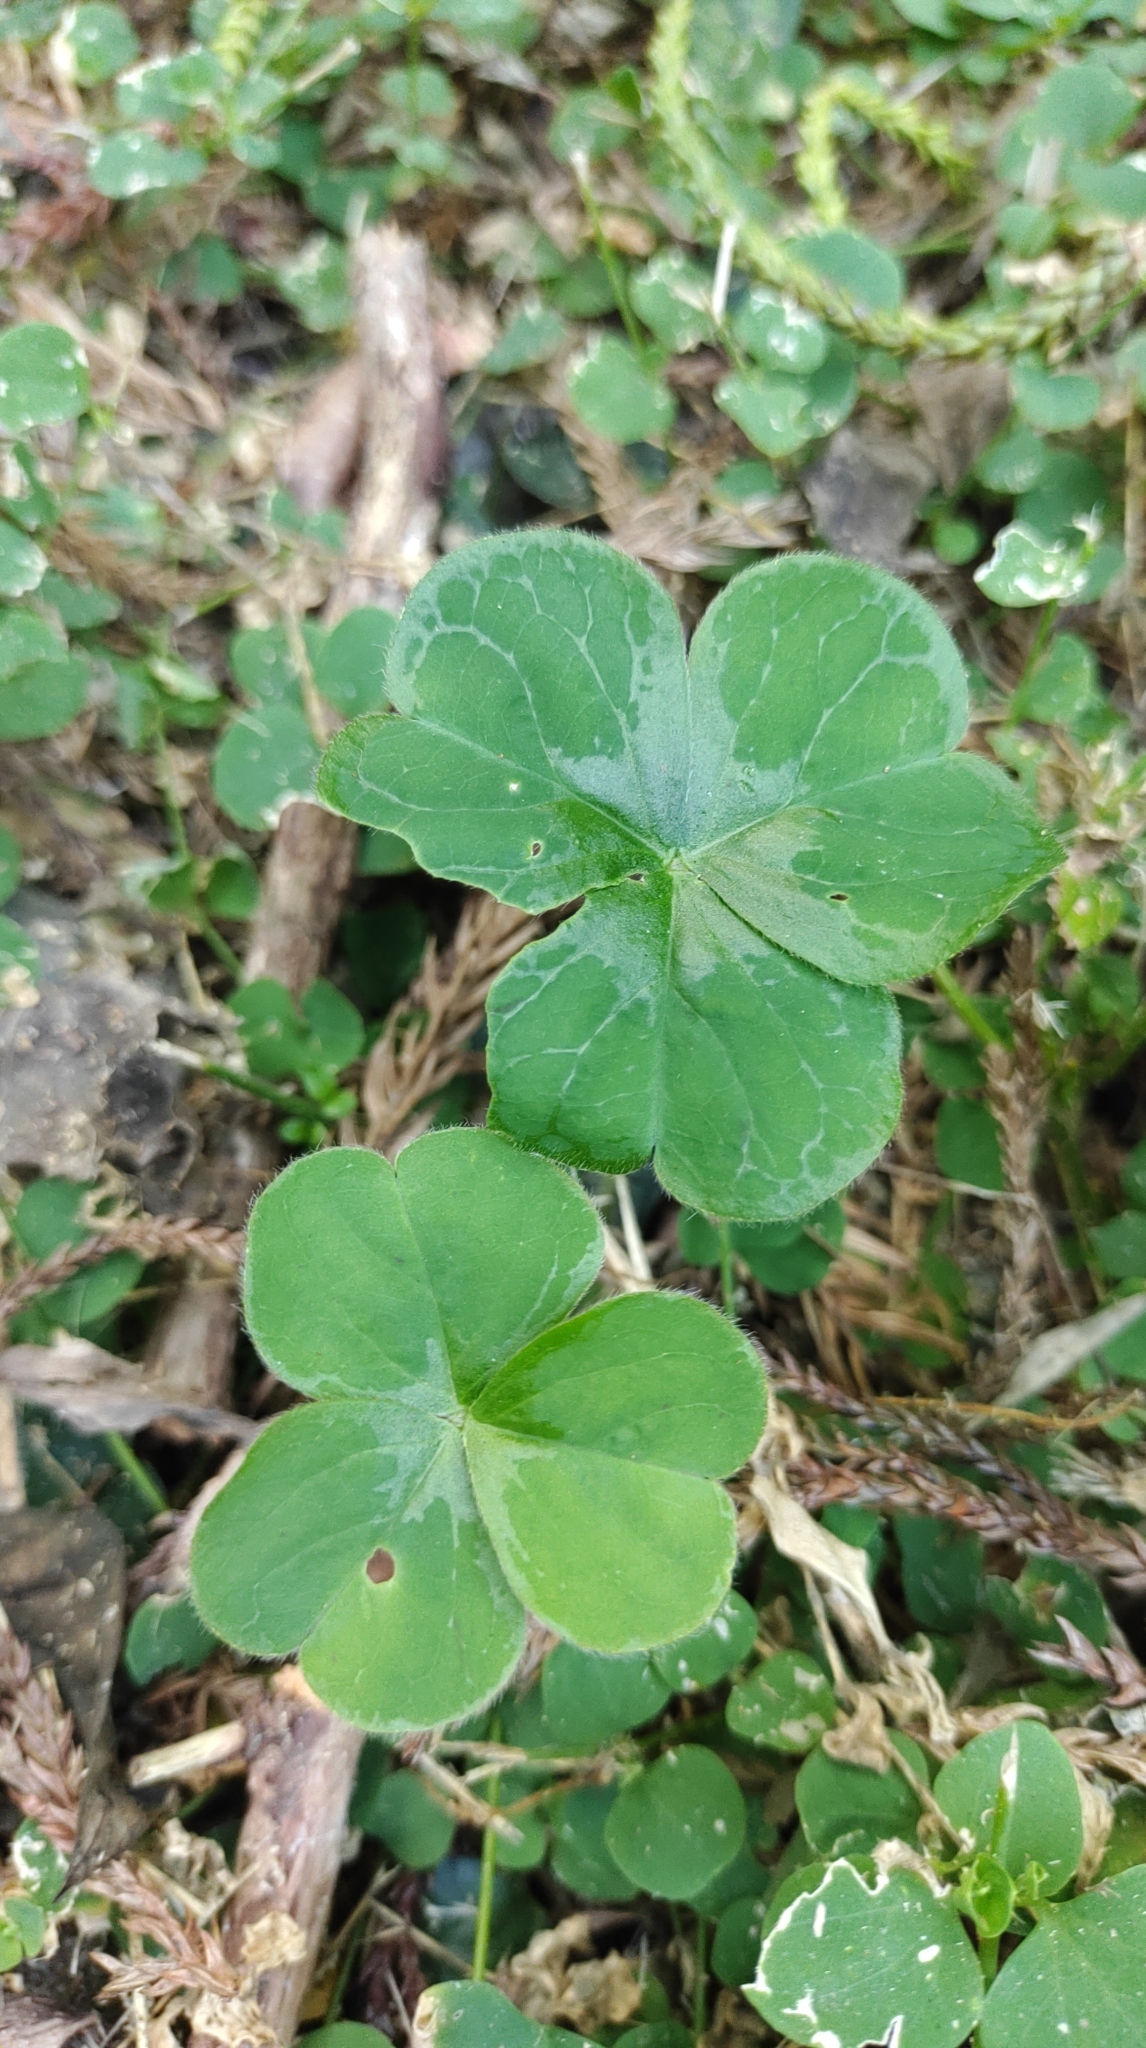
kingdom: Plantae
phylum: Tracheophyta
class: Magnoliopsida
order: Oxalidales
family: Oxalidaceae
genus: Oxalis
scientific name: Oxalis debilis
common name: Large-flowered pink-sorrel
